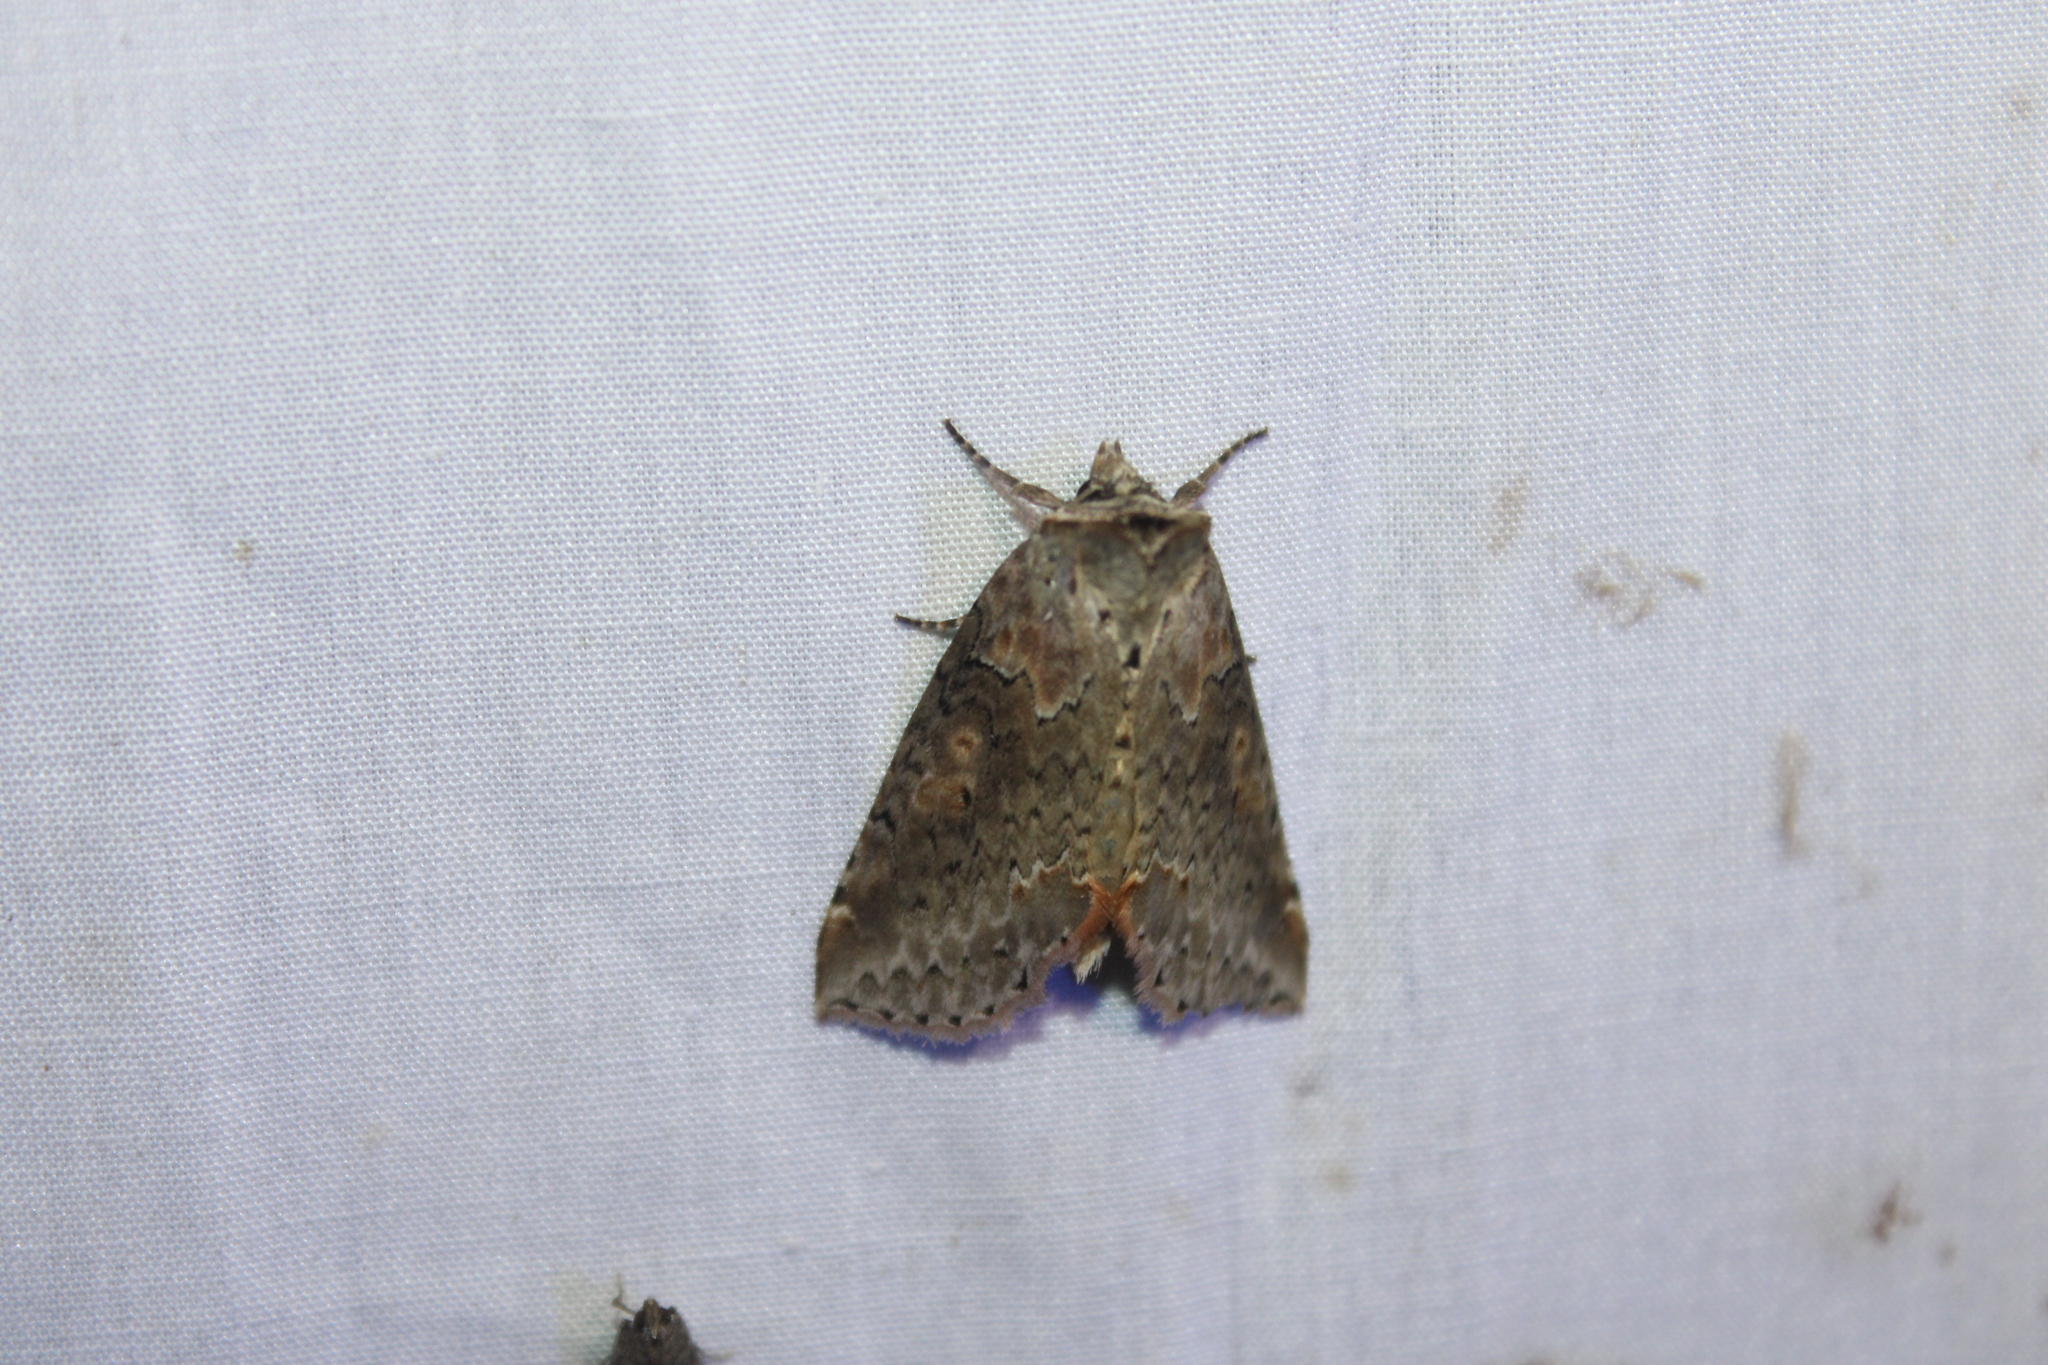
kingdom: Animalia
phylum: Arthropoda
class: Insecta
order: Lepidoptera
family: Drepanidae
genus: Pseudothyatira
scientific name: Pseudothyatira cymatophoroides
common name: Tufted thyatirid moth
